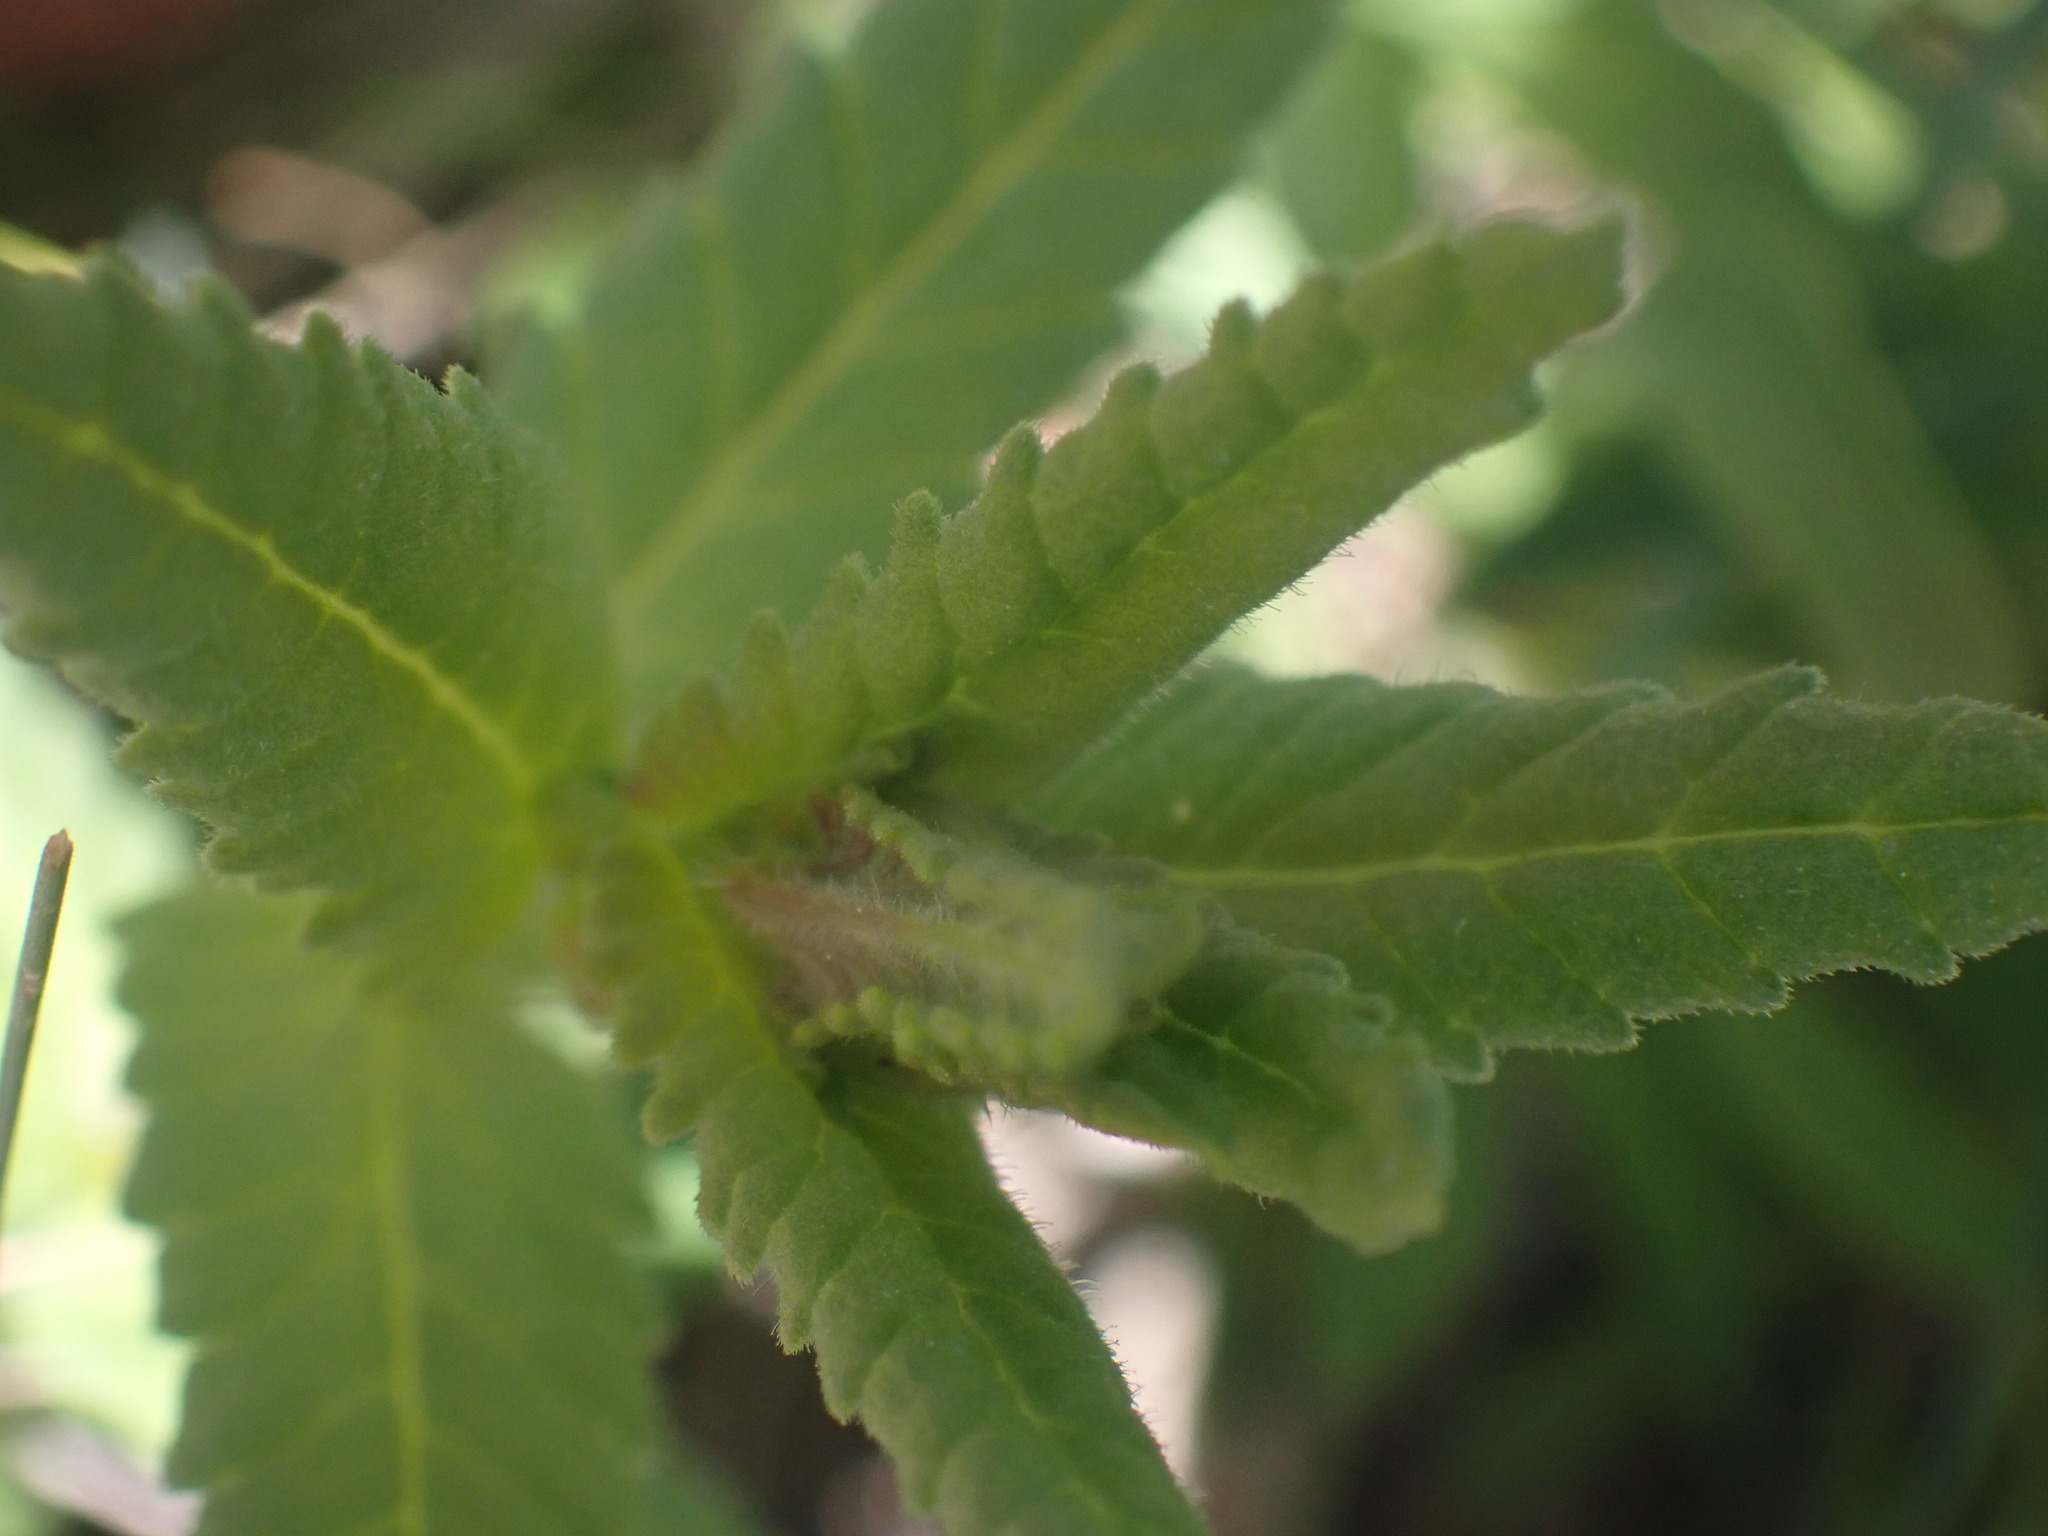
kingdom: Plantae
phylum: Tracheophyta
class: Magnoliopsida
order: Lamiales
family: Orobanchaceae
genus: Rhinanthus
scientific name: Rhinanthus groenlandicus
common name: Little yellow rattle
